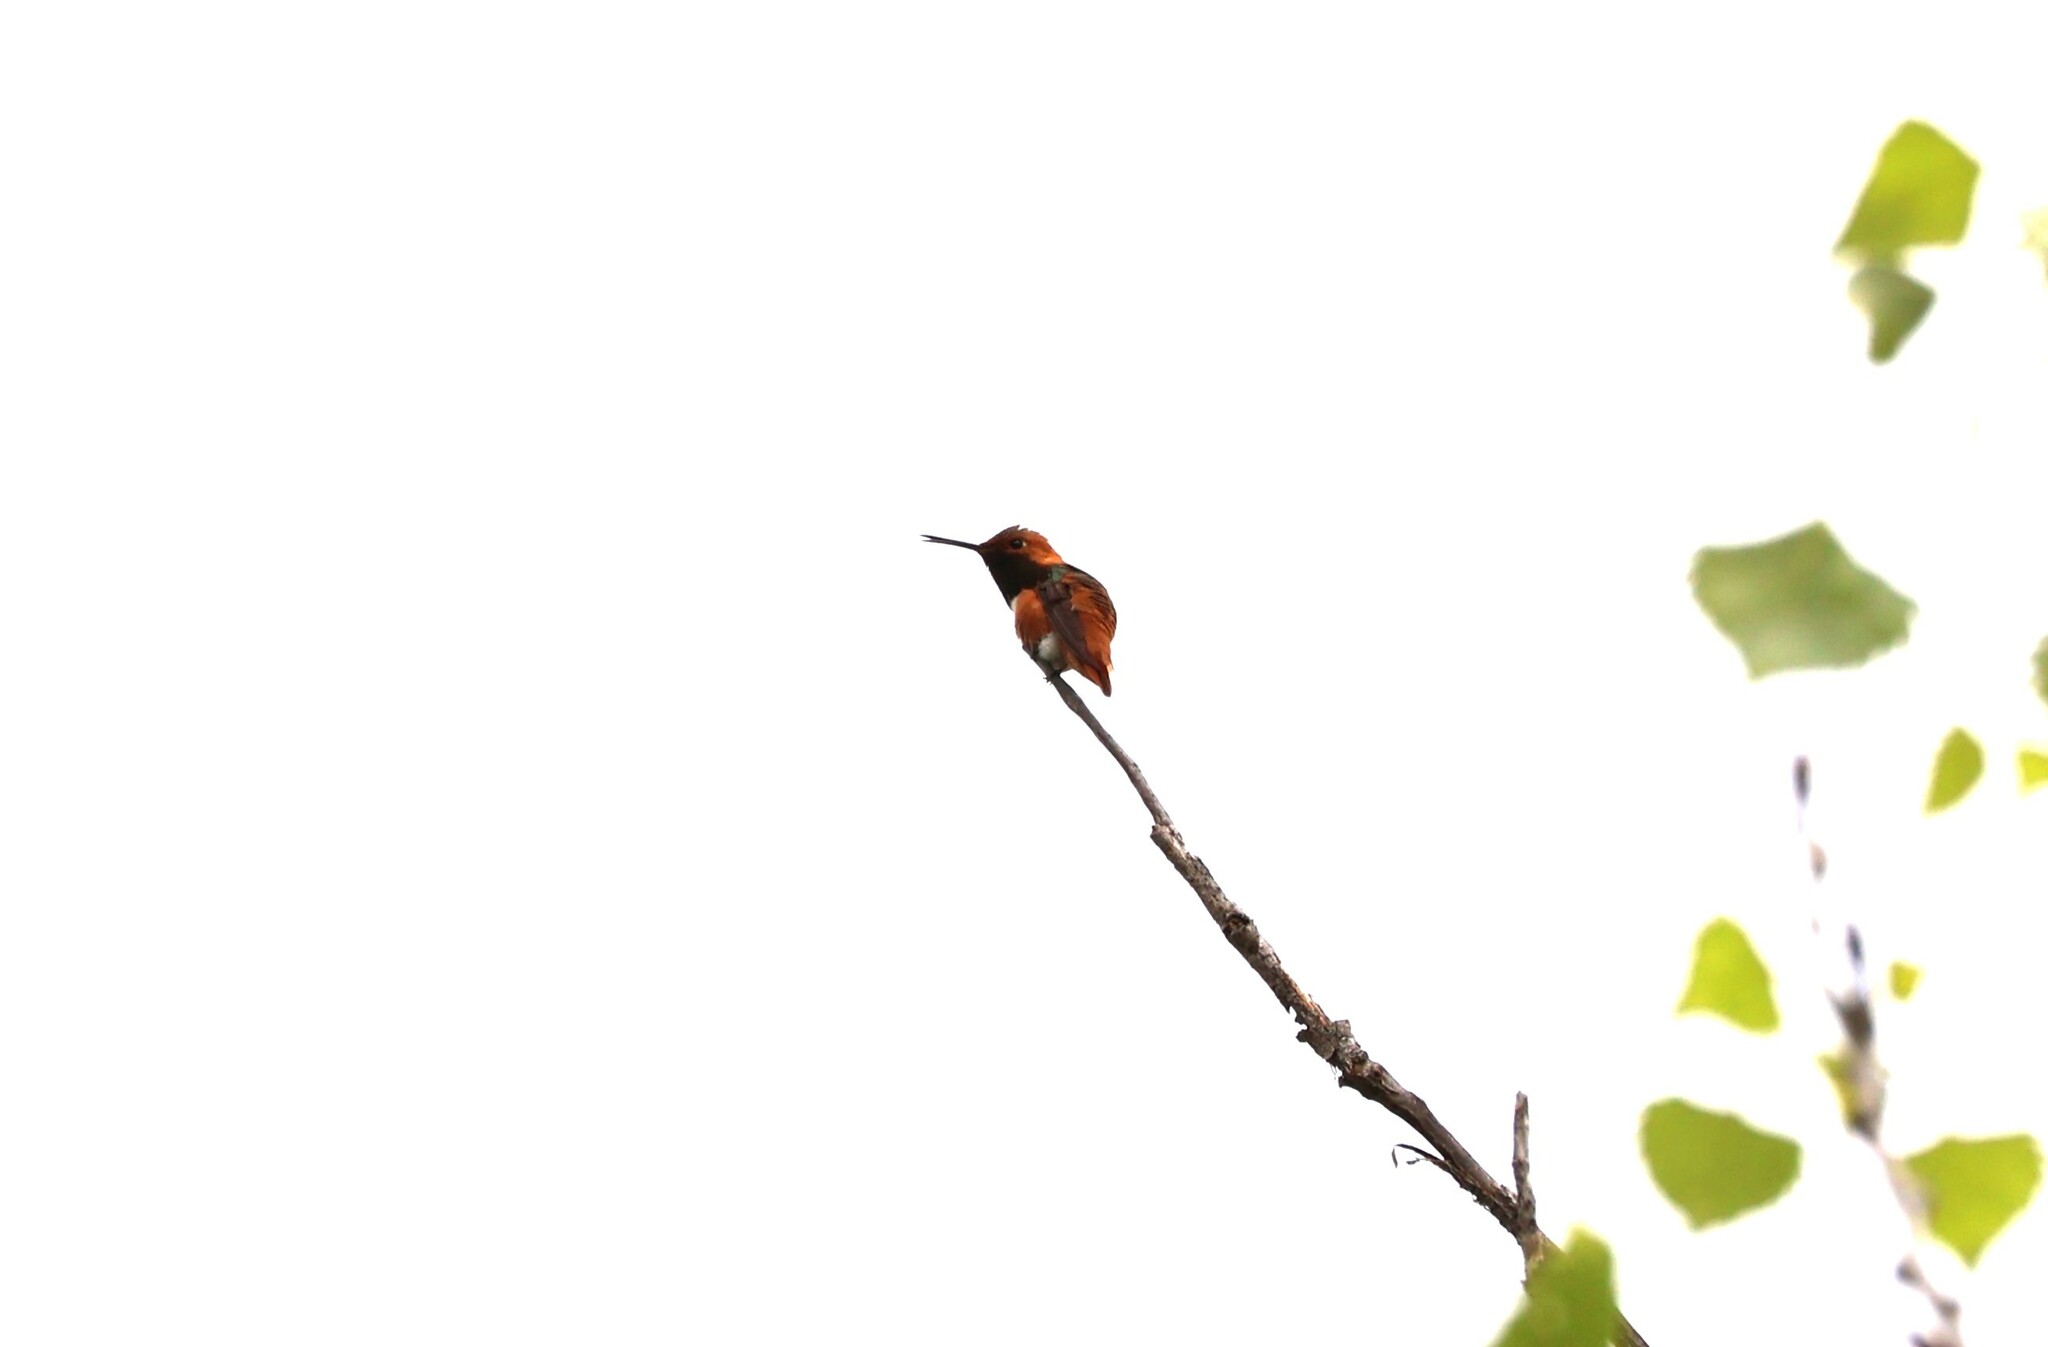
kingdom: Animalia
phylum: Chordata
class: Aves
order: Apodiformes
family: Trochilidae
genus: Selasphorus
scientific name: Selasphorus sasin
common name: Allen's hummingbird
